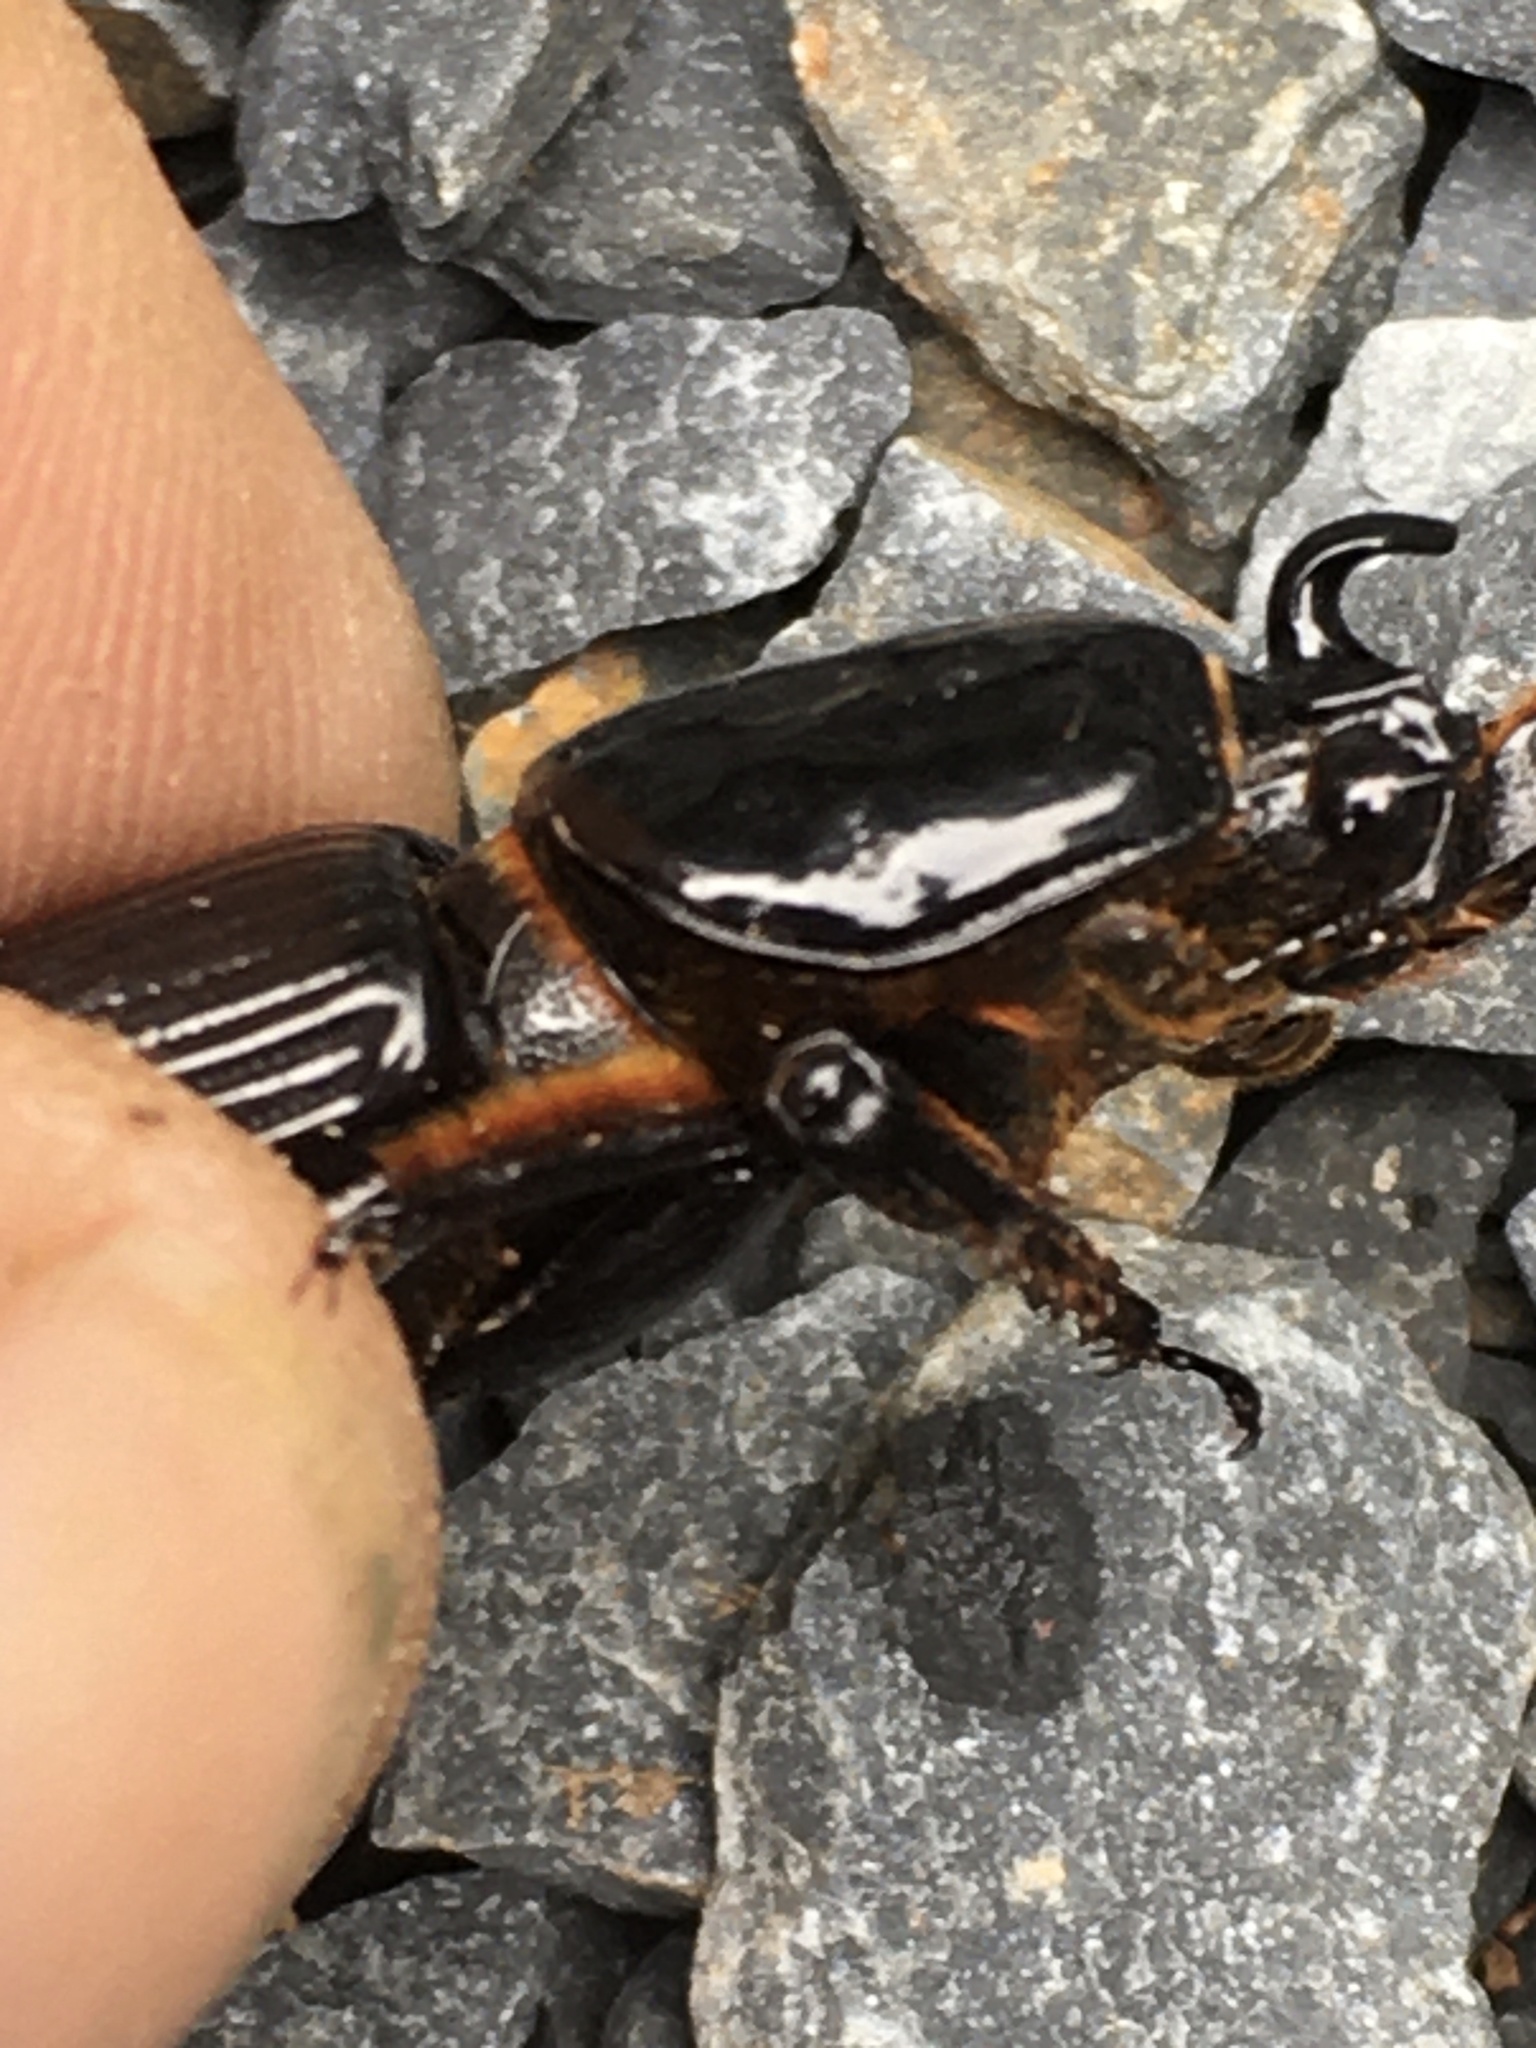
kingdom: Animalia
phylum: Arthropoda
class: Insecta
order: Coleoptera
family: Passalidae
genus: Odontotaenius
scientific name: Odontotaenius disjunctus
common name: Patent leather beetle
